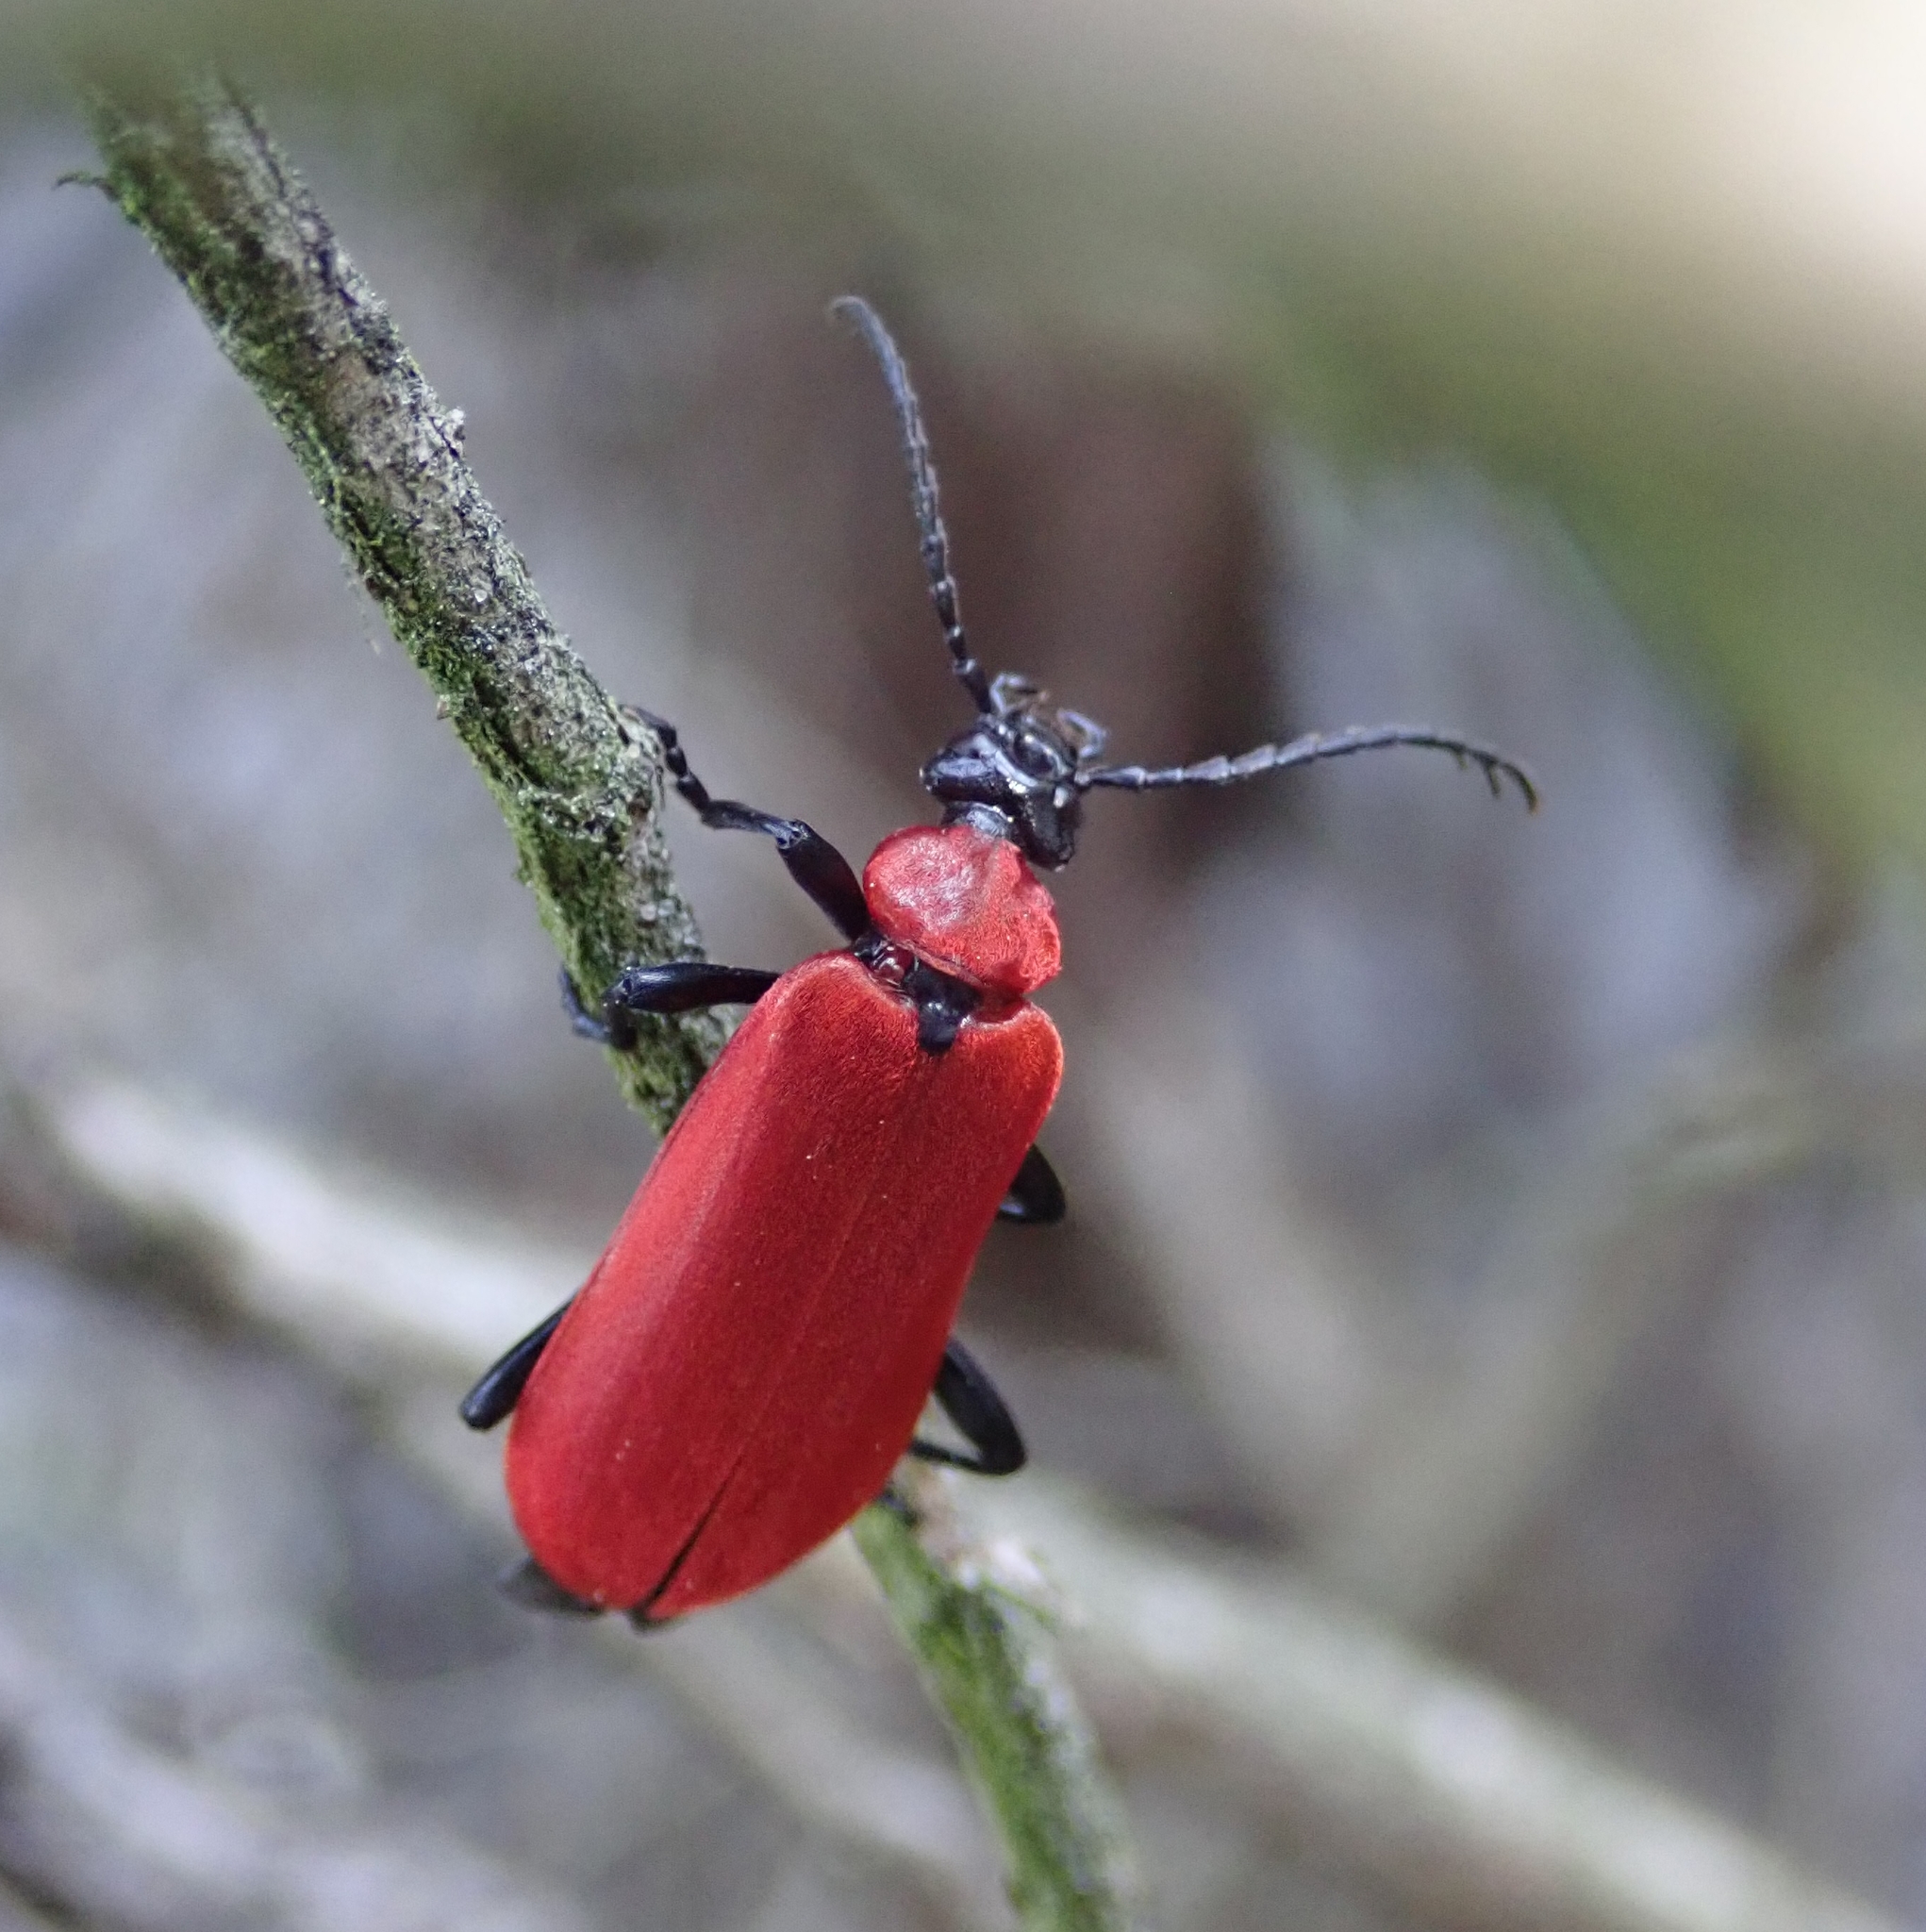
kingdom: Animalia
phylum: Arthropoda
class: Insecta
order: Coleoptera
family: Pyrochroidae
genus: Pyrochroa
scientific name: Pyrochroa coccinea
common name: Black-headed cardinal beetle
